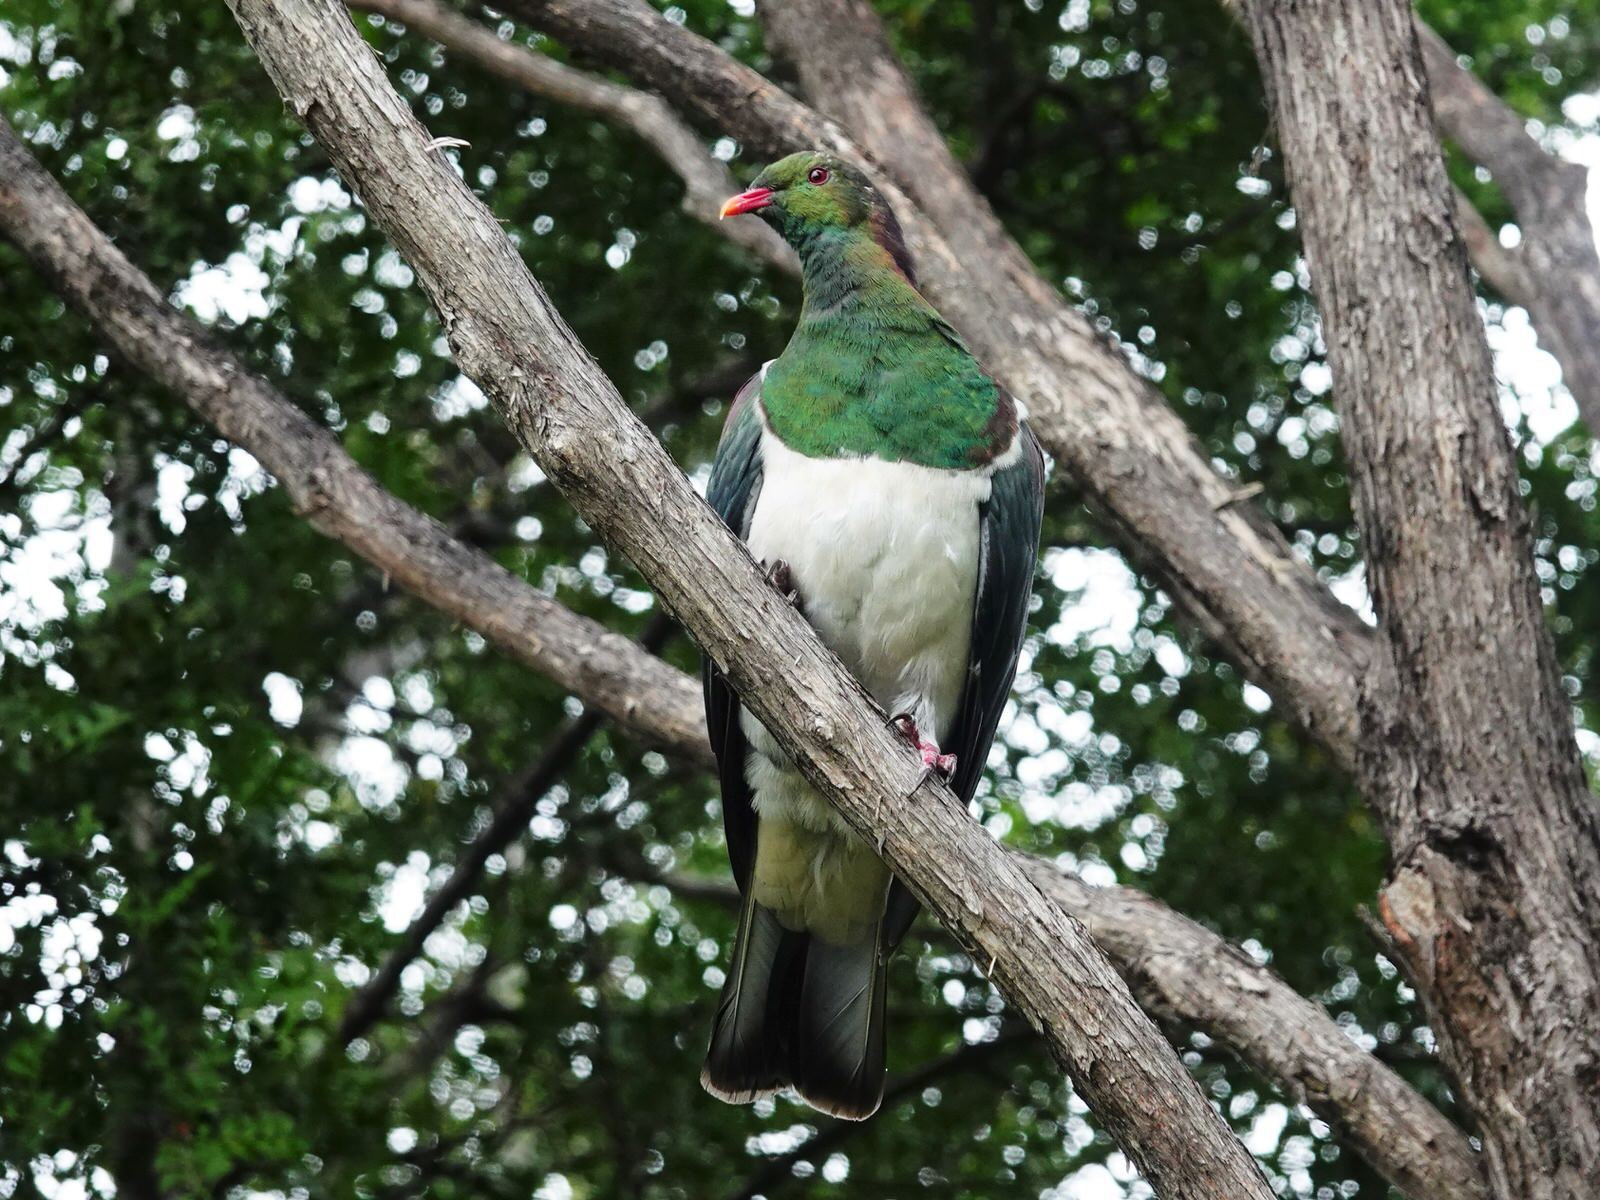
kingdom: Animalia
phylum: Chordata
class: Aves
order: Columbiformes
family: Columbidae
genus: Hemiphaga
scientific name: Hemiphaga novaeseelandiae
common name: New zealand pigeon
